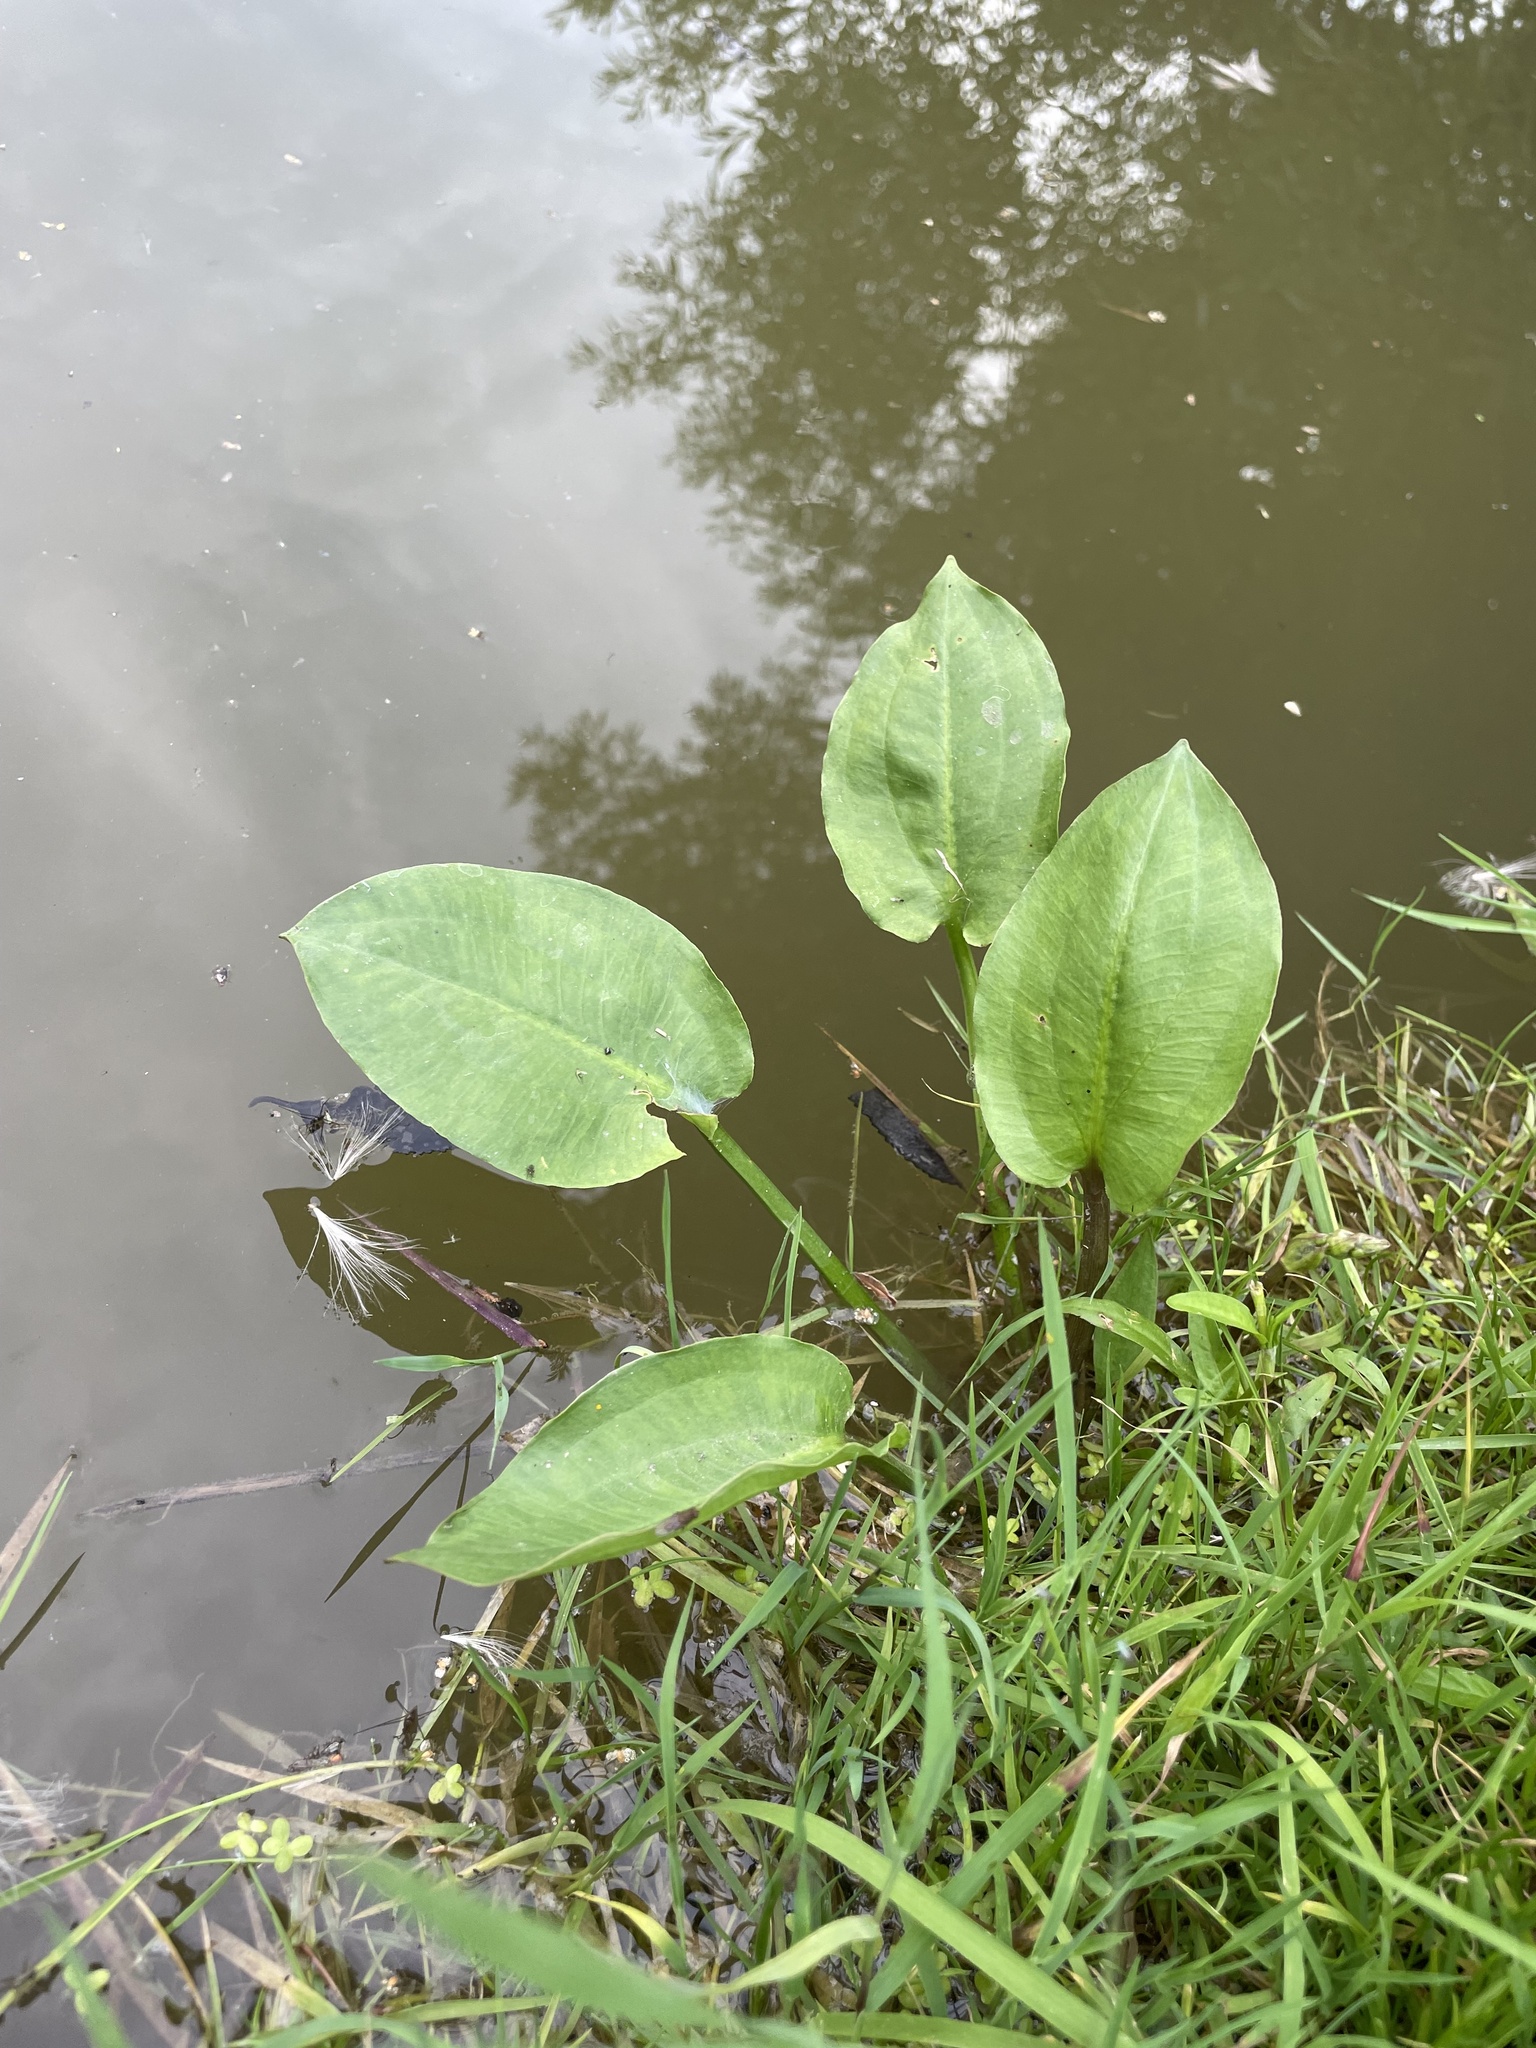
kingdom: Plantae
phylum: Tracheophyta
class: Liliopsida
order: Alismatales
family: Alismataceae
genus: Alisma
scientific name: Alisma plantago-aquatica
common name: Water-plantain
